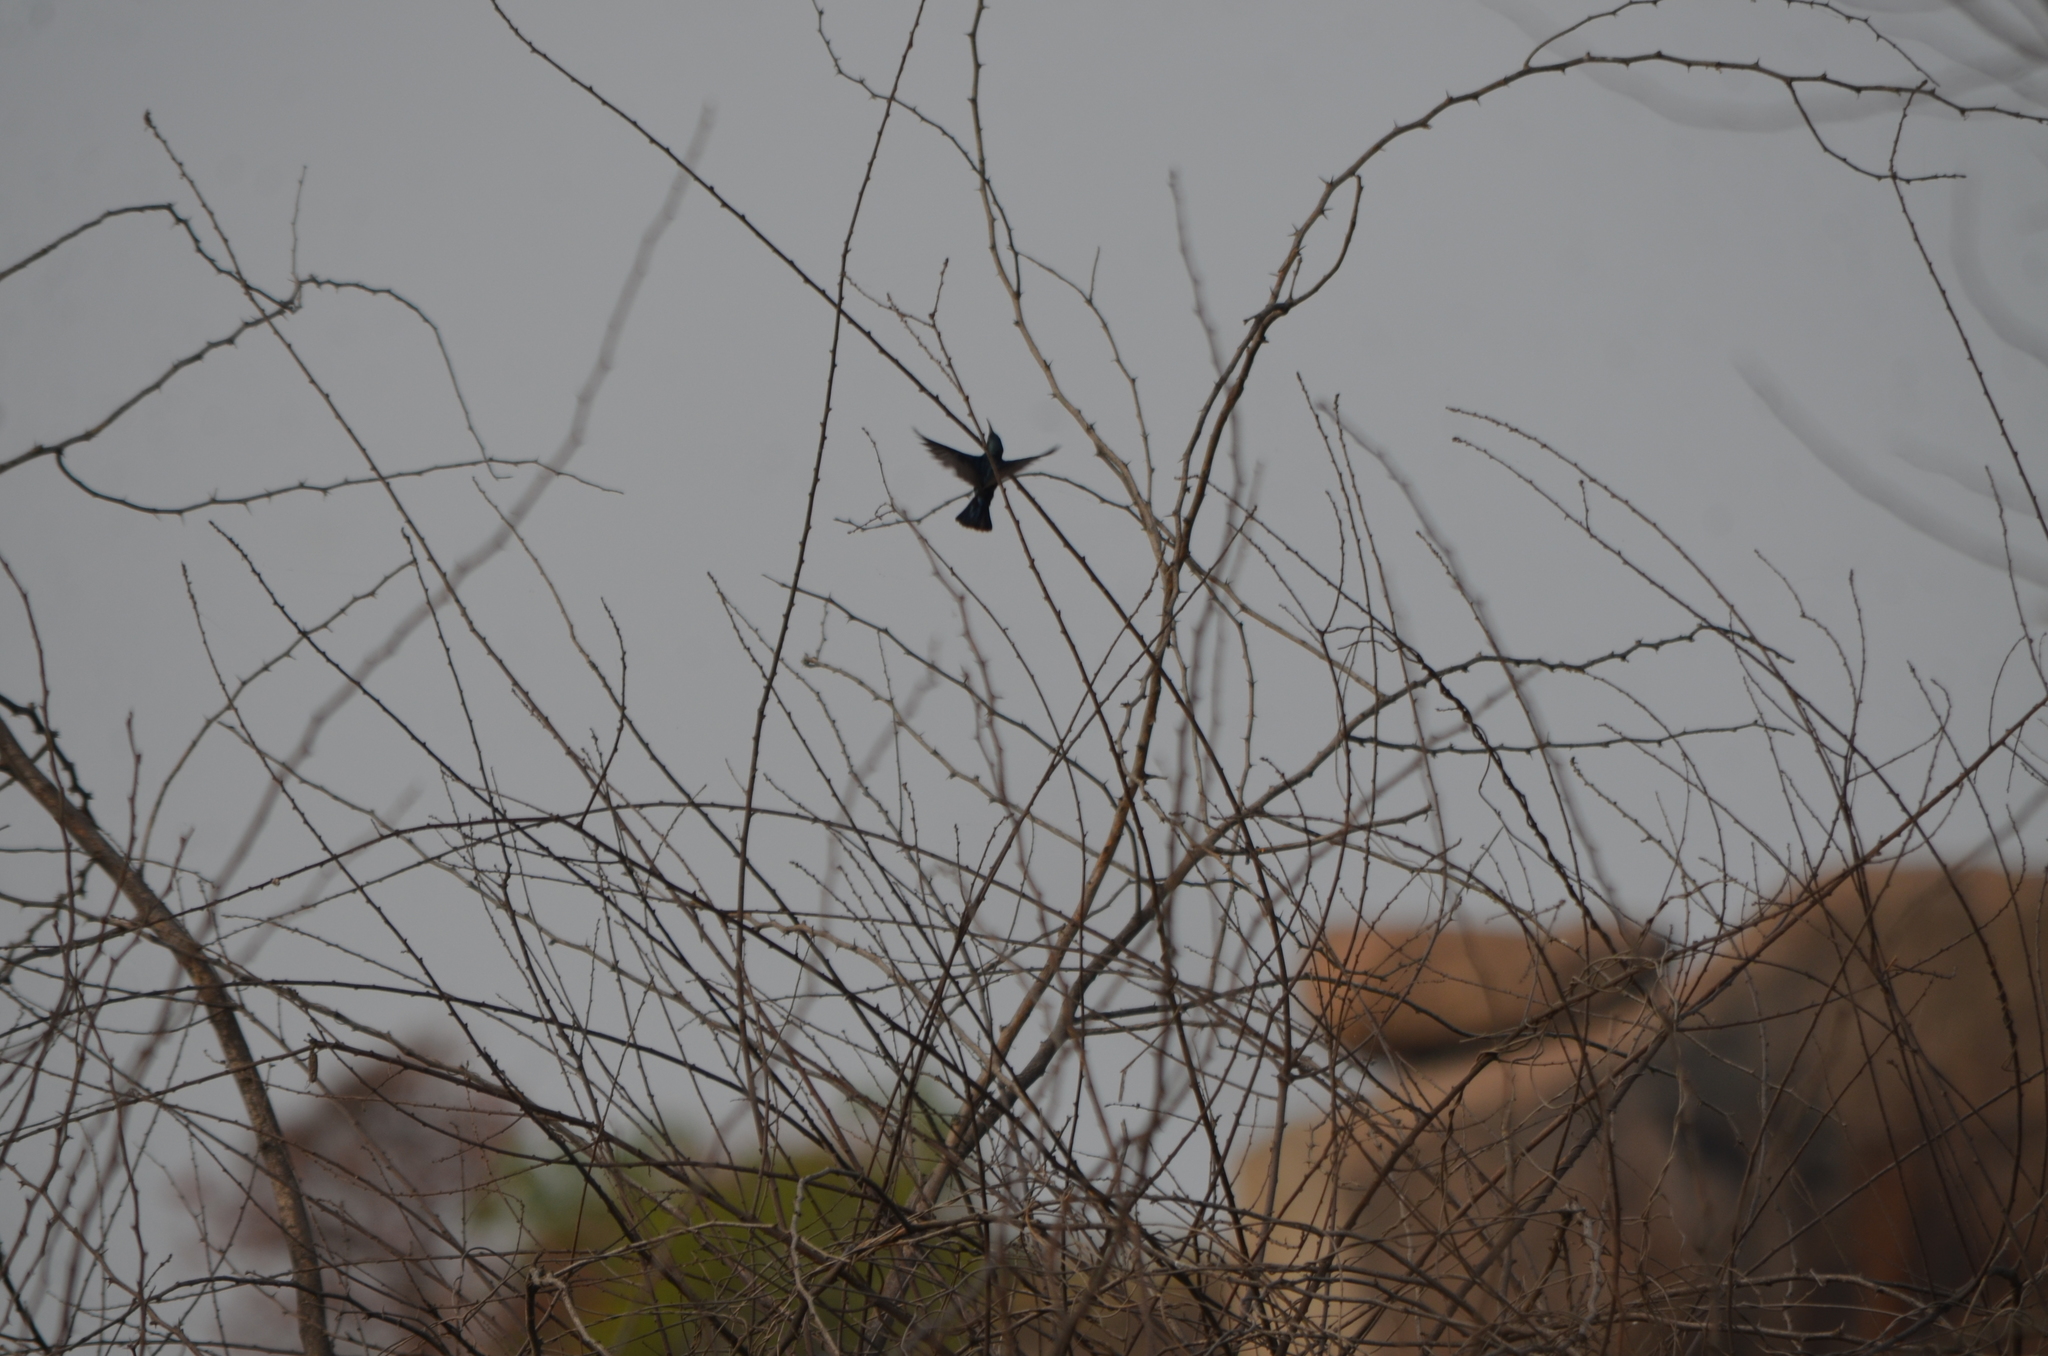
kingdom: Animalia
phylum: Chordata
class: Aves
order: Passeriformes
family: Nectariniidae
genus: Cinnyris
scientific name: Cinnyris asiaticus
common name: Purple sunbird
